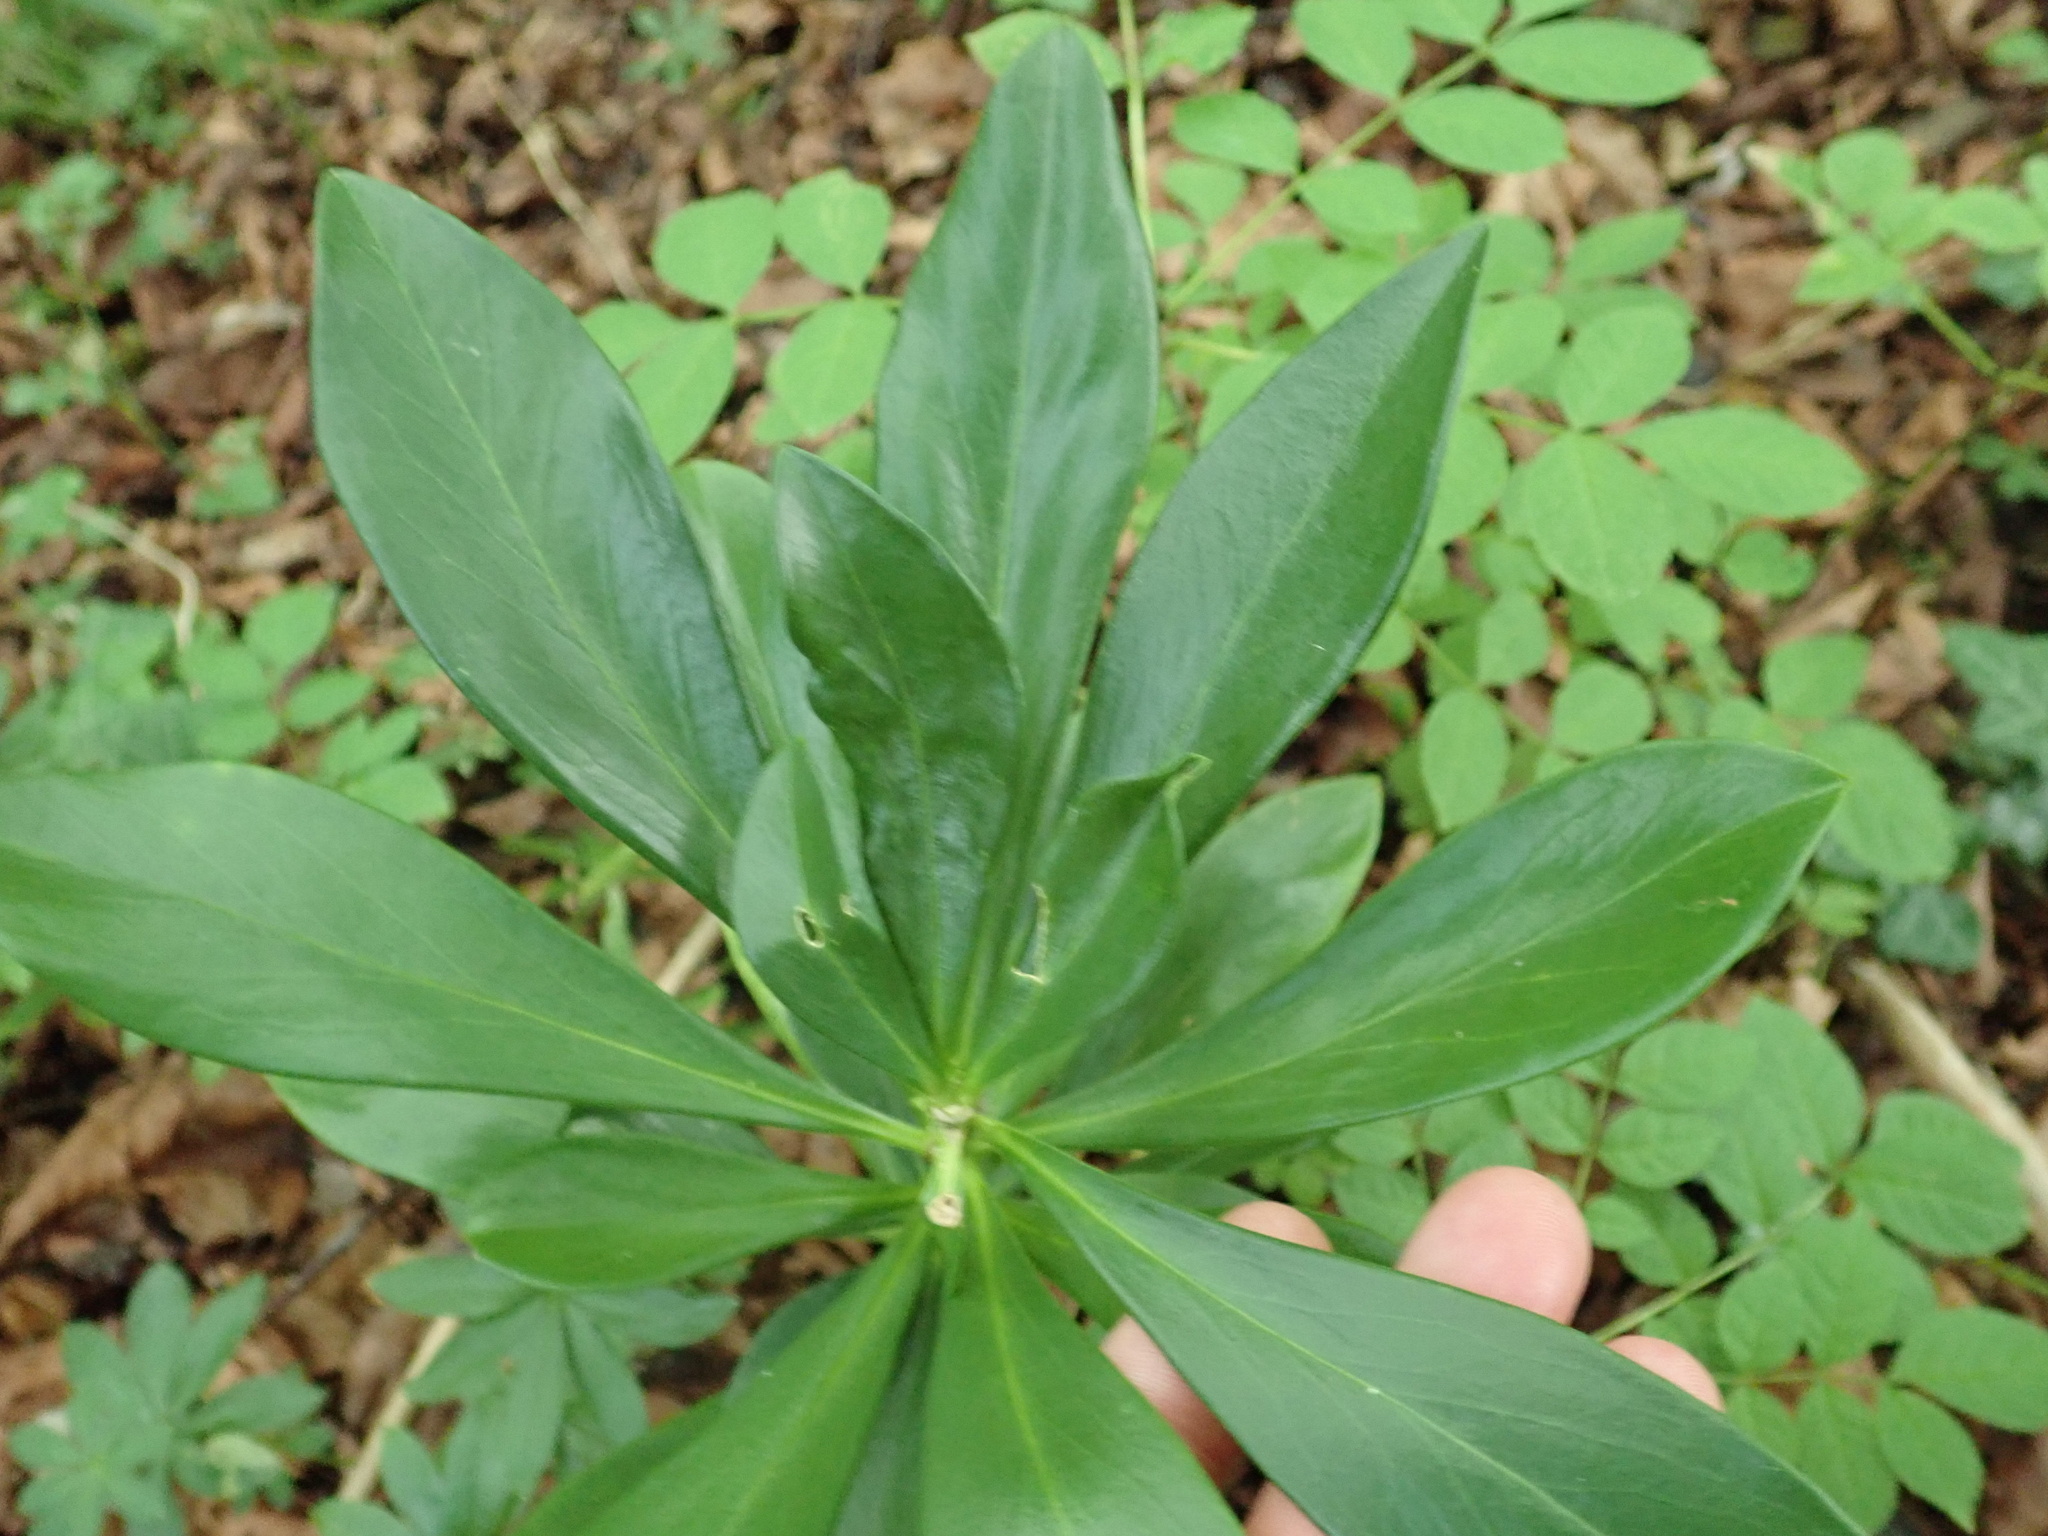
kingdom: Plantae
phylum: Tracheophyta
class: Magnoliopsida
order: Malvales
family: Thymelaeaceae
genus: Daphne
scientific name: Daphne laureola
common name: Spurge-laurel
